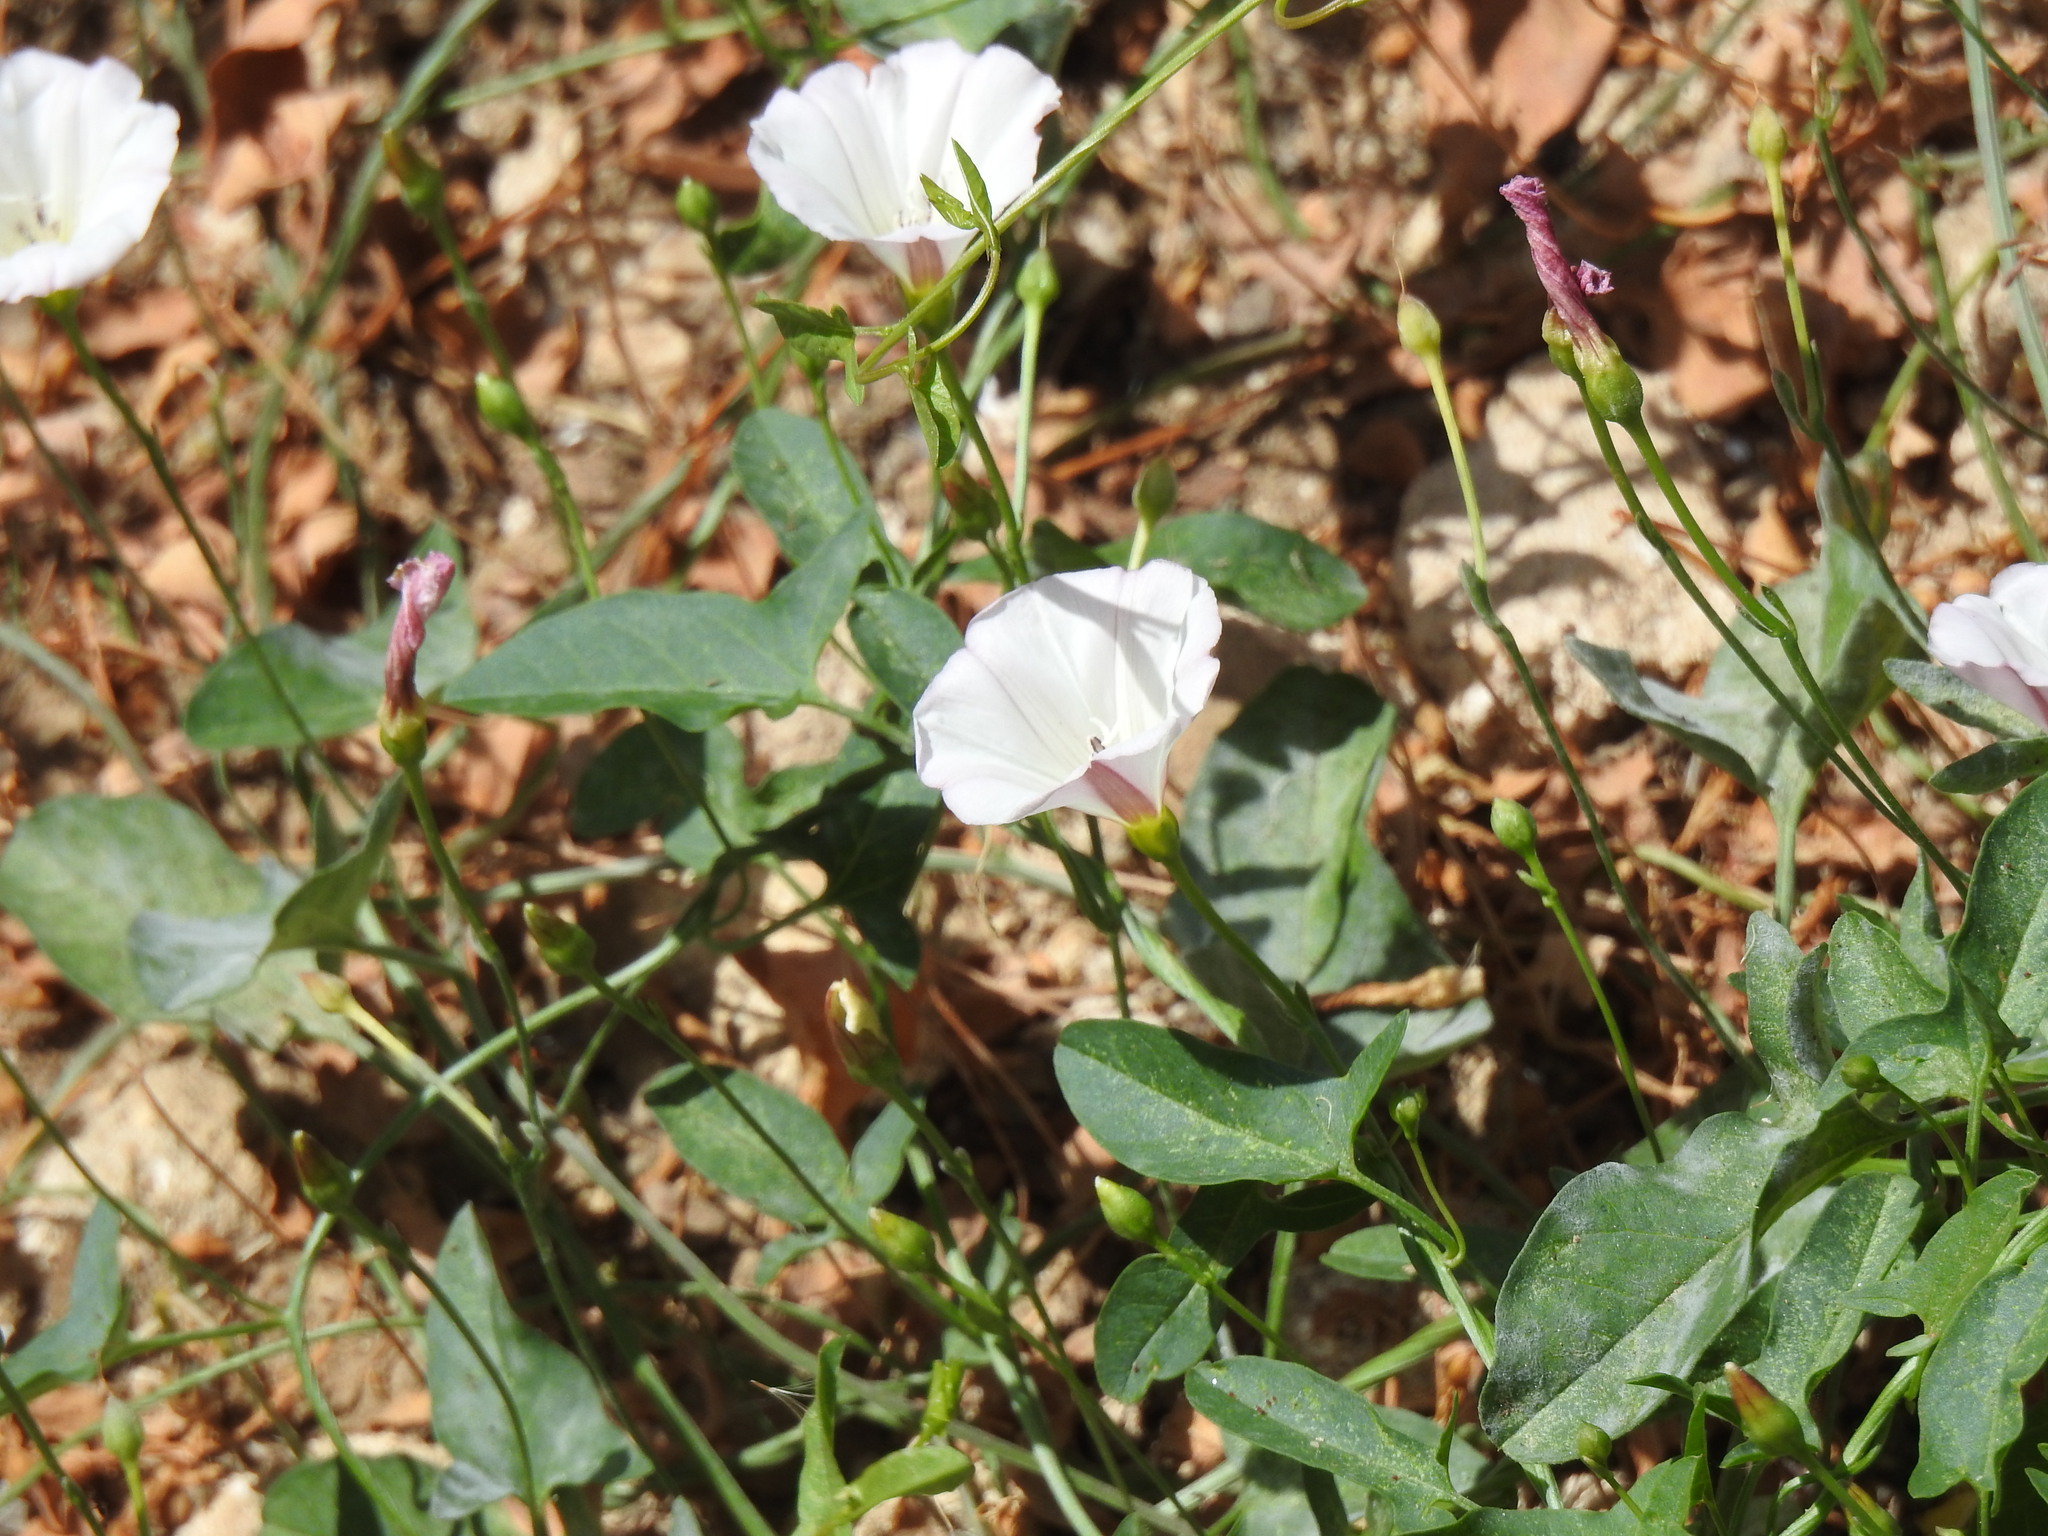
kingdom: Plantae
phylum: Tracheophyta
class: Magnoliopsida
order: Solanales
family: Convolvulaceae
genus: Convolvulus
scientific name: Convolvulus arvensis
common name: Field bindweed
